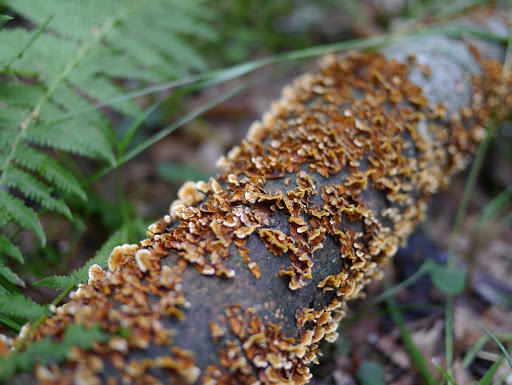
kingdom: Fungi
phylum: Basidiomycota
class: Agaricomycetes
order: Russulales
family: Stereaceae
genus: Stereum
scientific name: Stereum complicatum
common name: Crowded parchment
